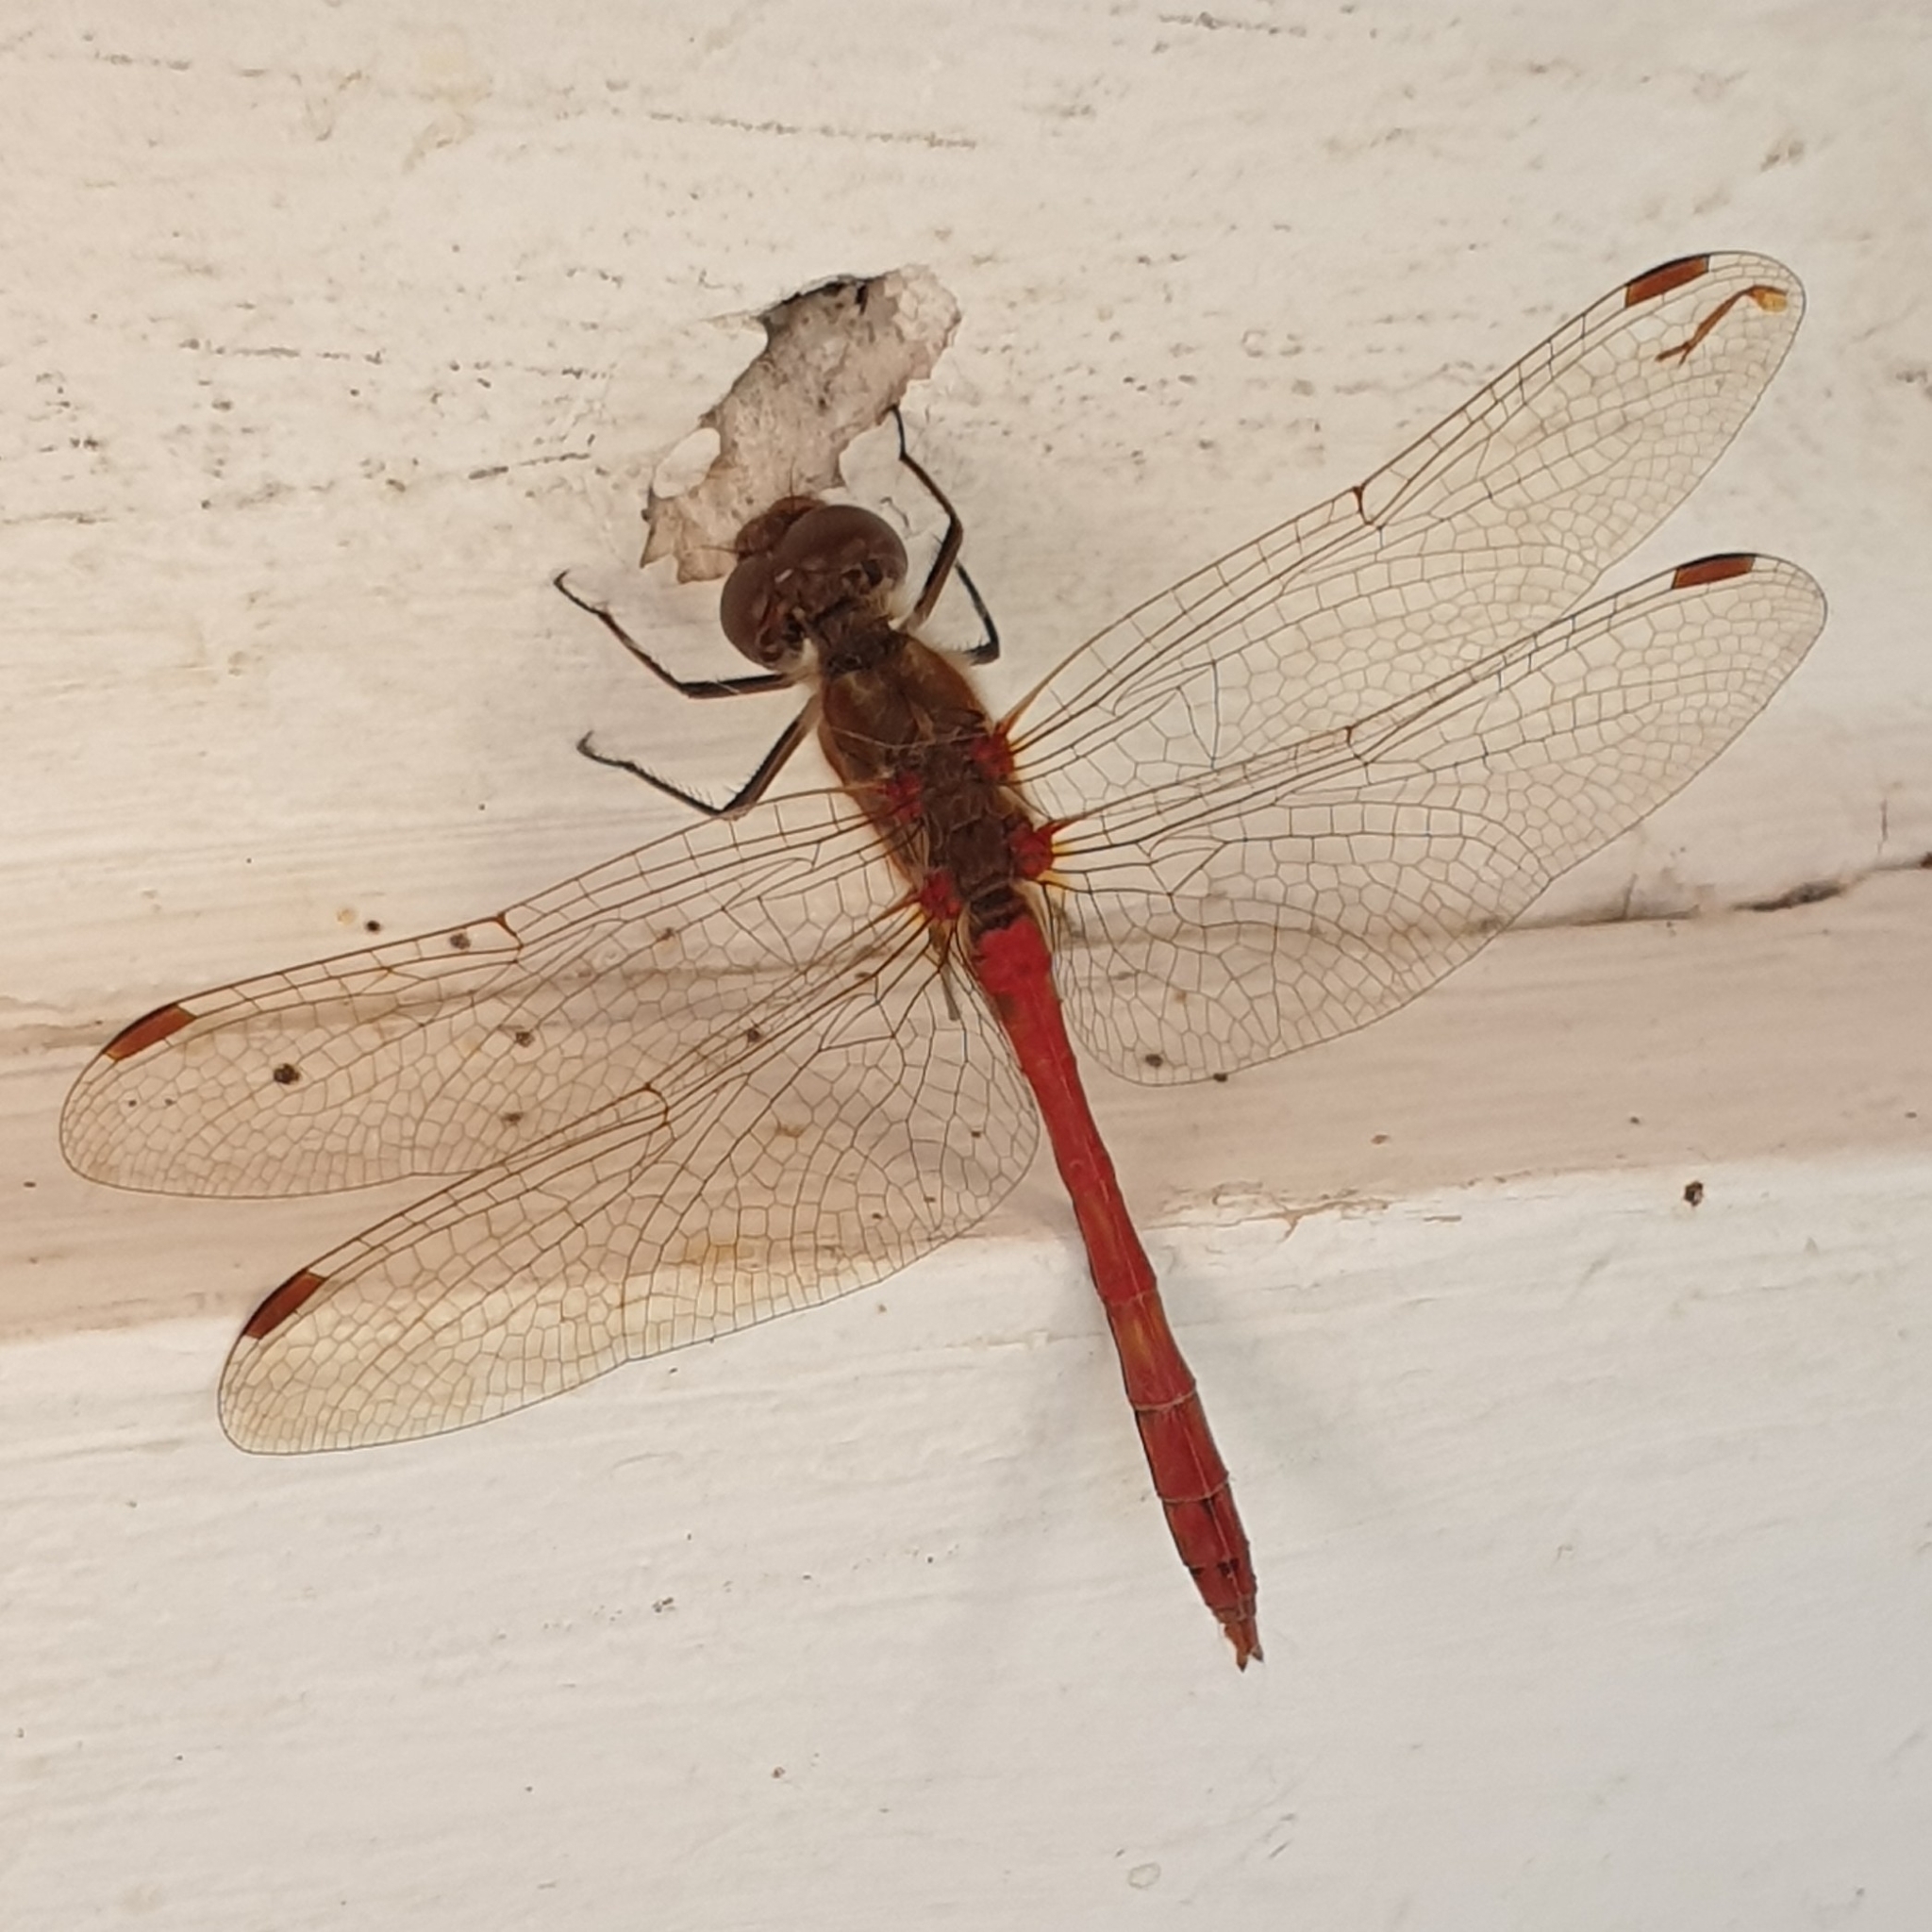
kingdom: Animalia
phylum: Arthropoda
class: Insecta
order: Odonata
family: Libellulidae
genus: Sympetrum
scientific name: Sympetrum vulgatum
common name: Vagrant darter
